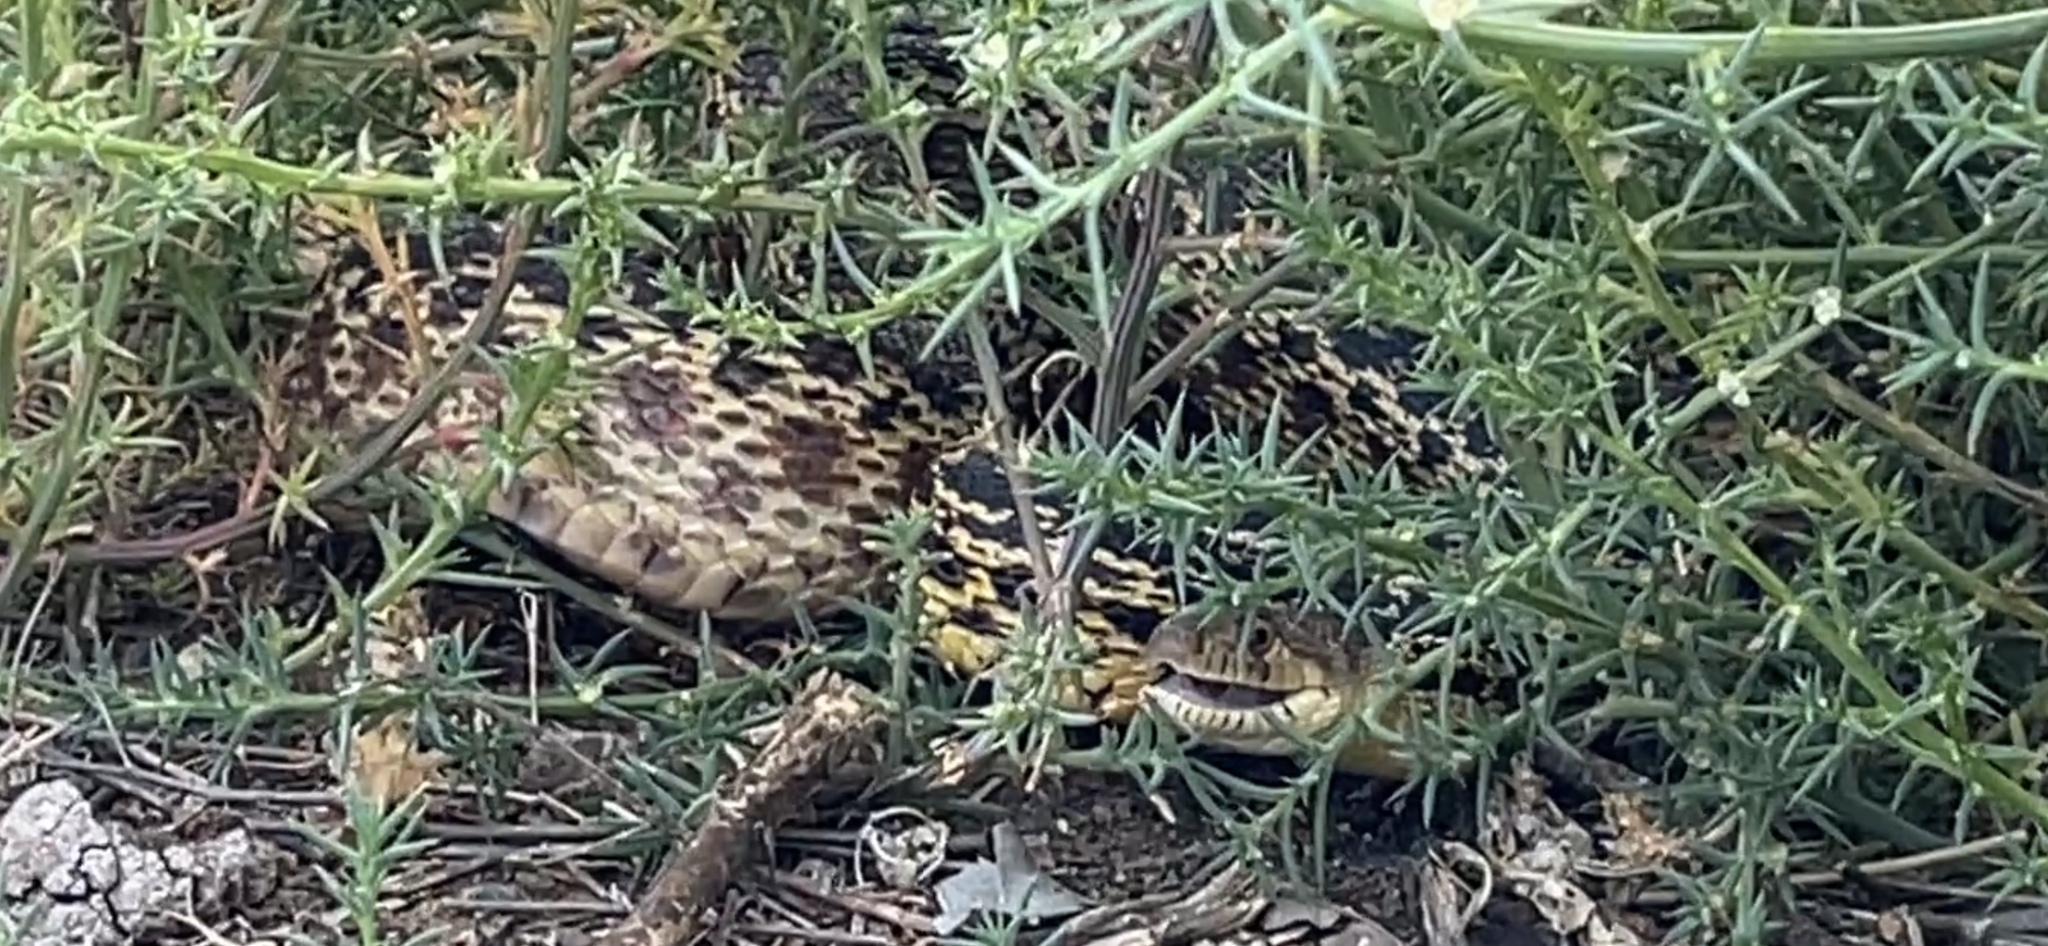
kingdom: Animalia
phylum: Chordata
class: Squamata
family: Colubridae
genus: Pituophis
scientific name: Pituophis catenifer
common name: Gopher snake
